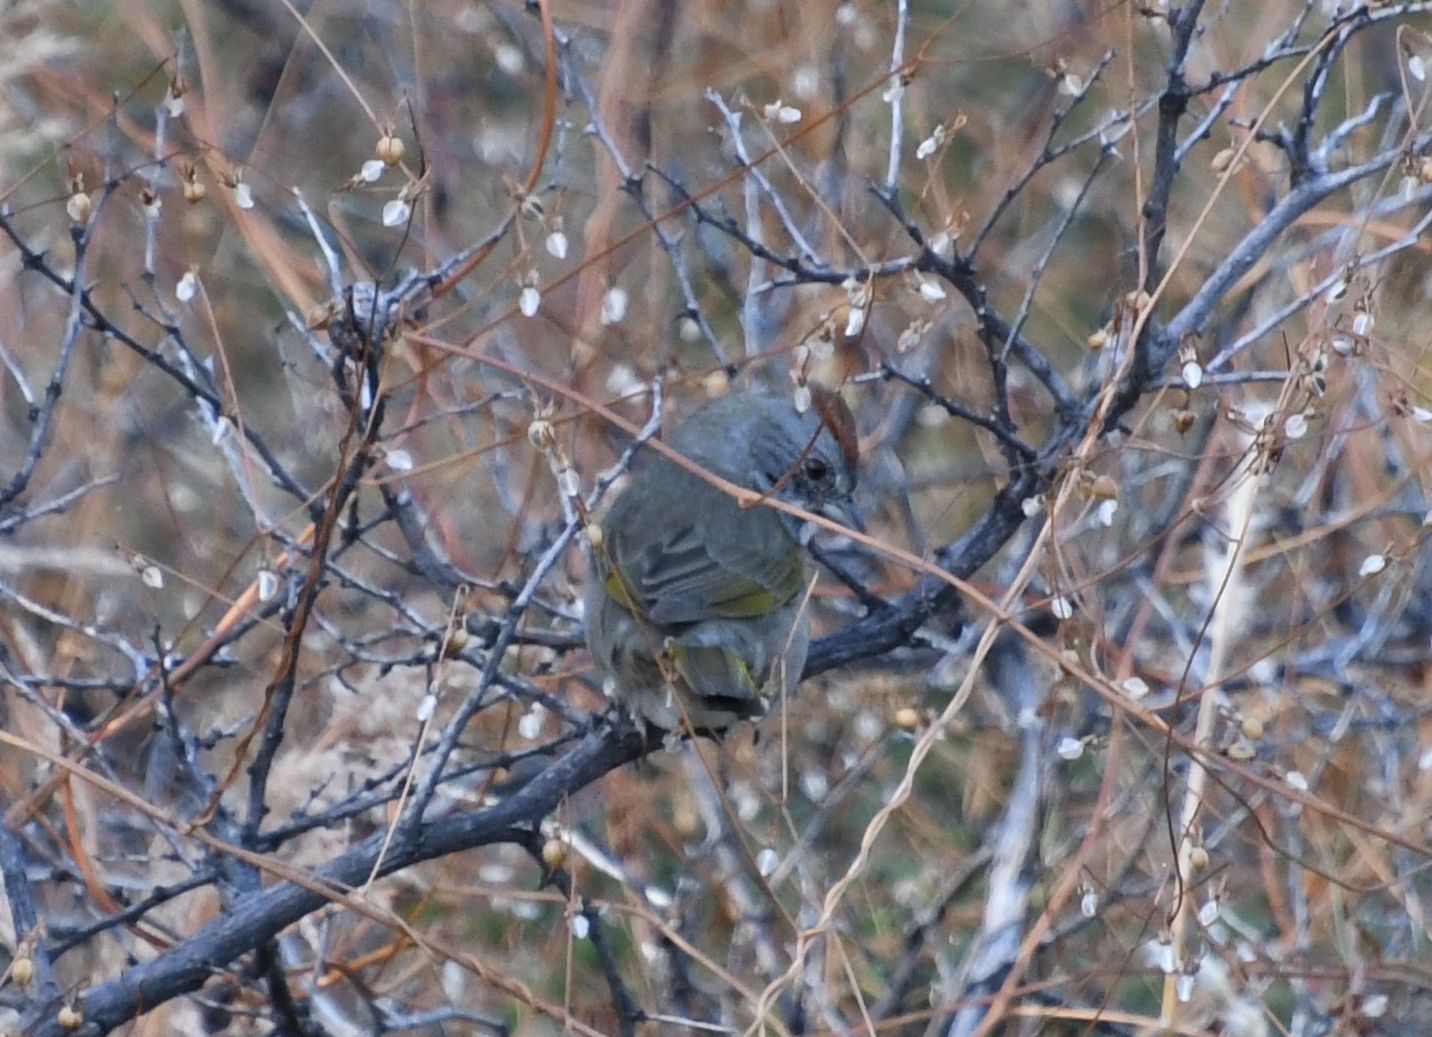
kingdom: Animalia
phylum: Chordata
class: Aves
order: Passeriformes
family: Passerellidae
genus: Pipilo
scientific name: Pipilo chlorurus
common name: Green-tailed towhee
